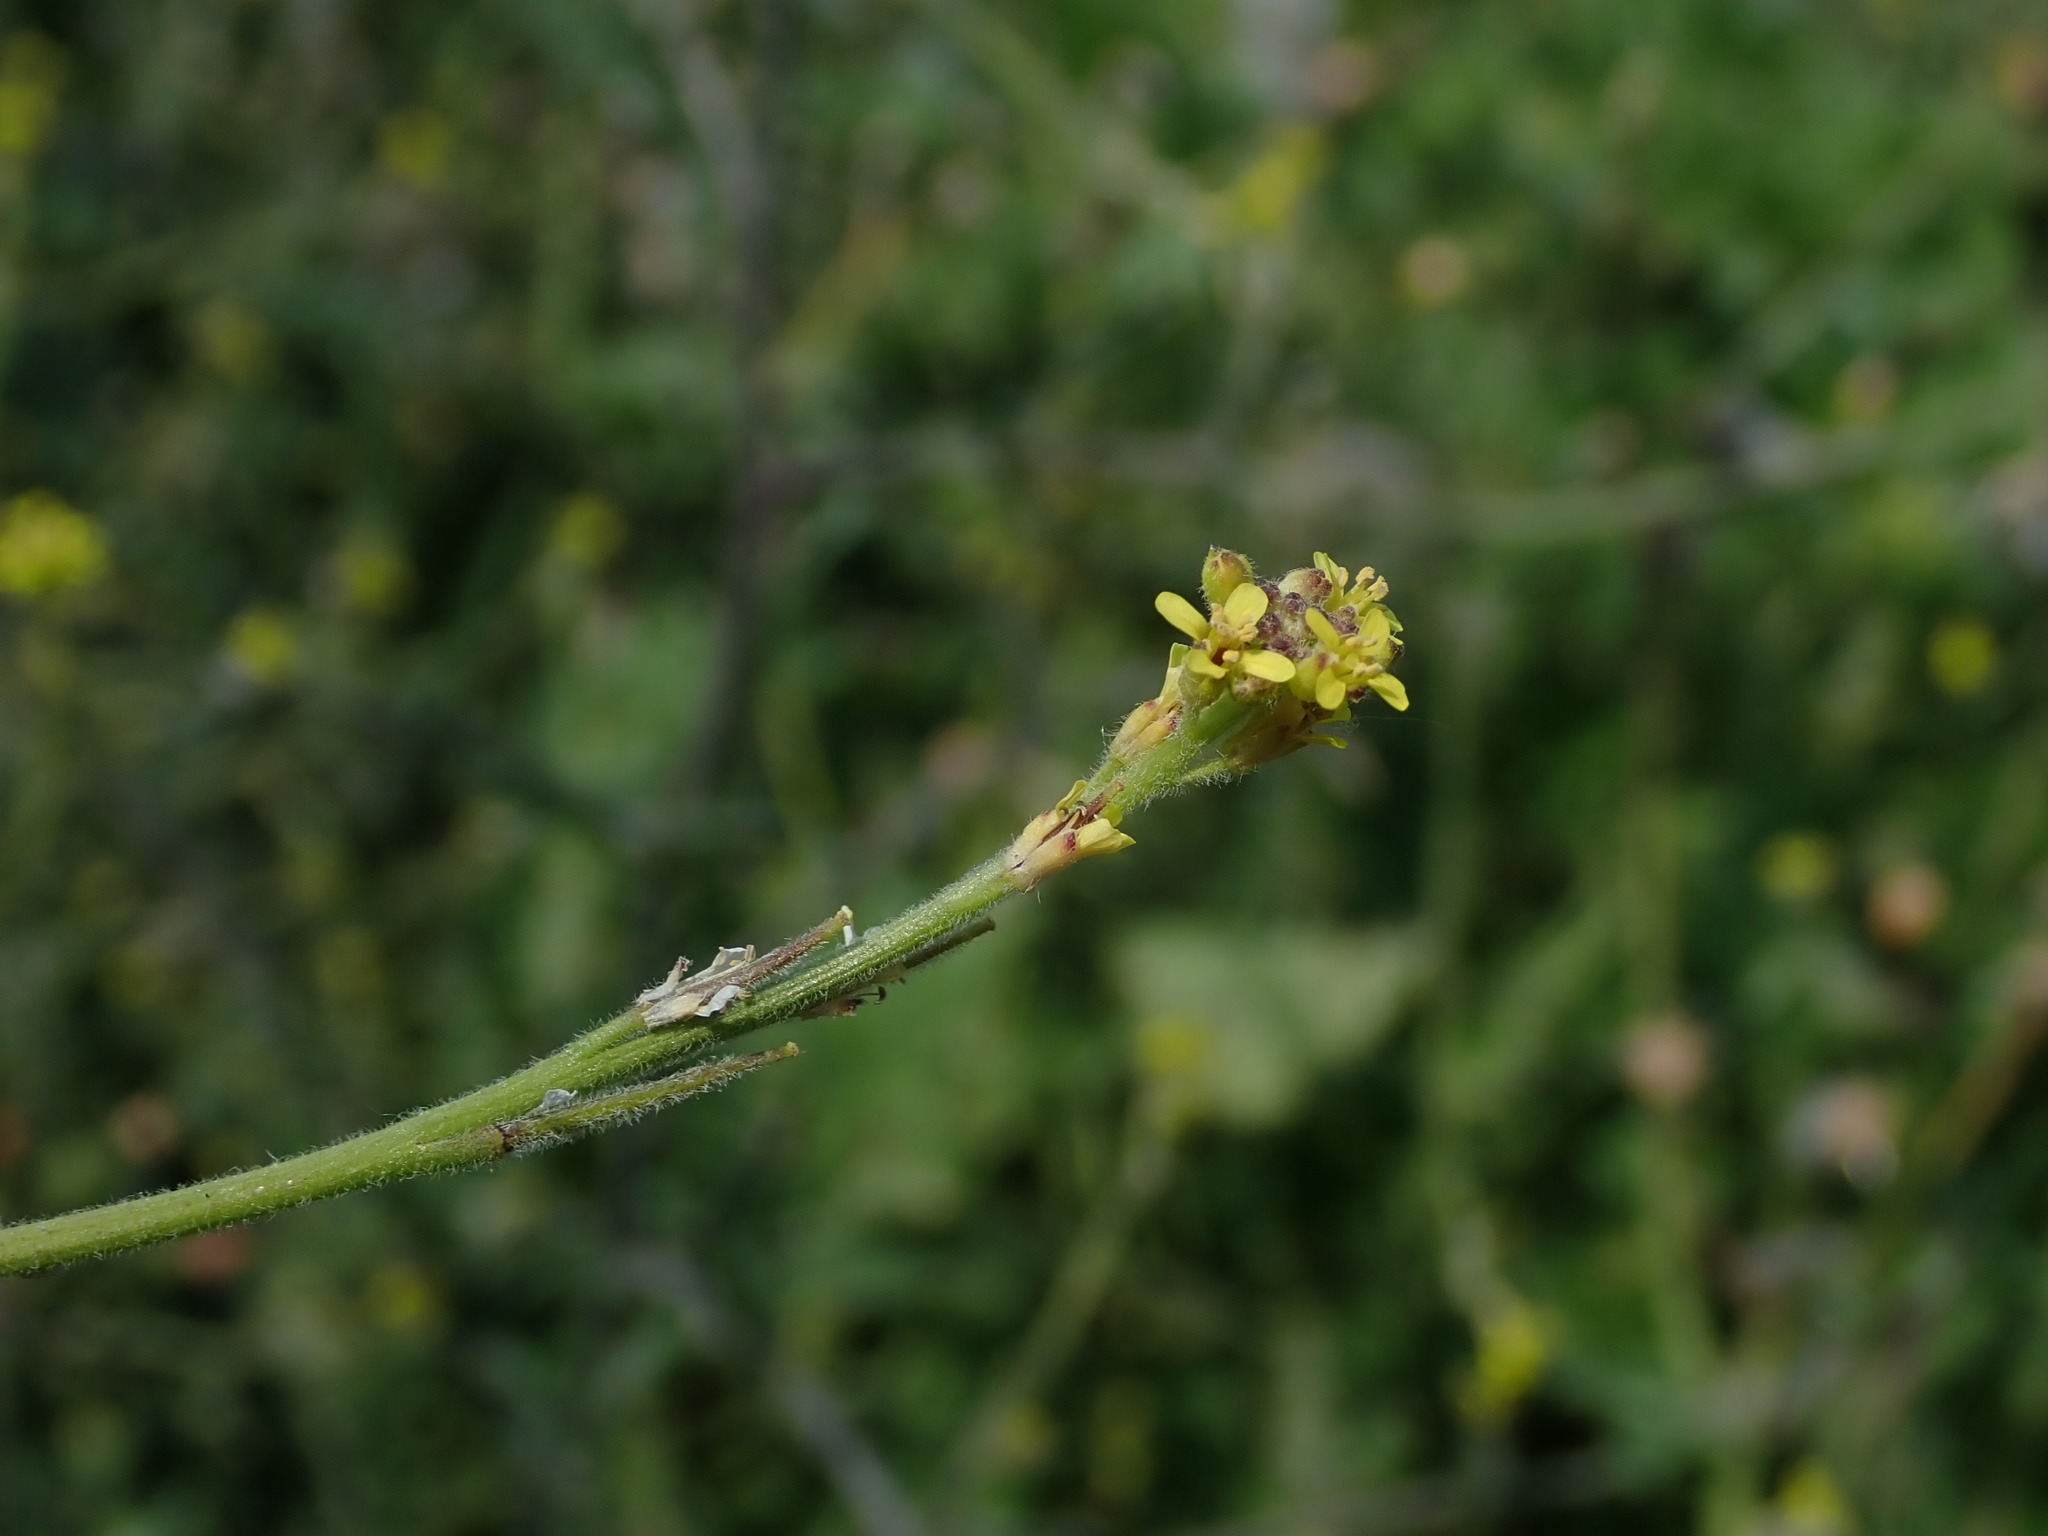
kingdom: Plantae
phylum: Tracheophyta
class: Magnoliopsida
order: Brassicales
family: Brassicaceae
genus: Sisymbrium
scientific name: Sisymbrium officinale
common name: Hedge mustard
